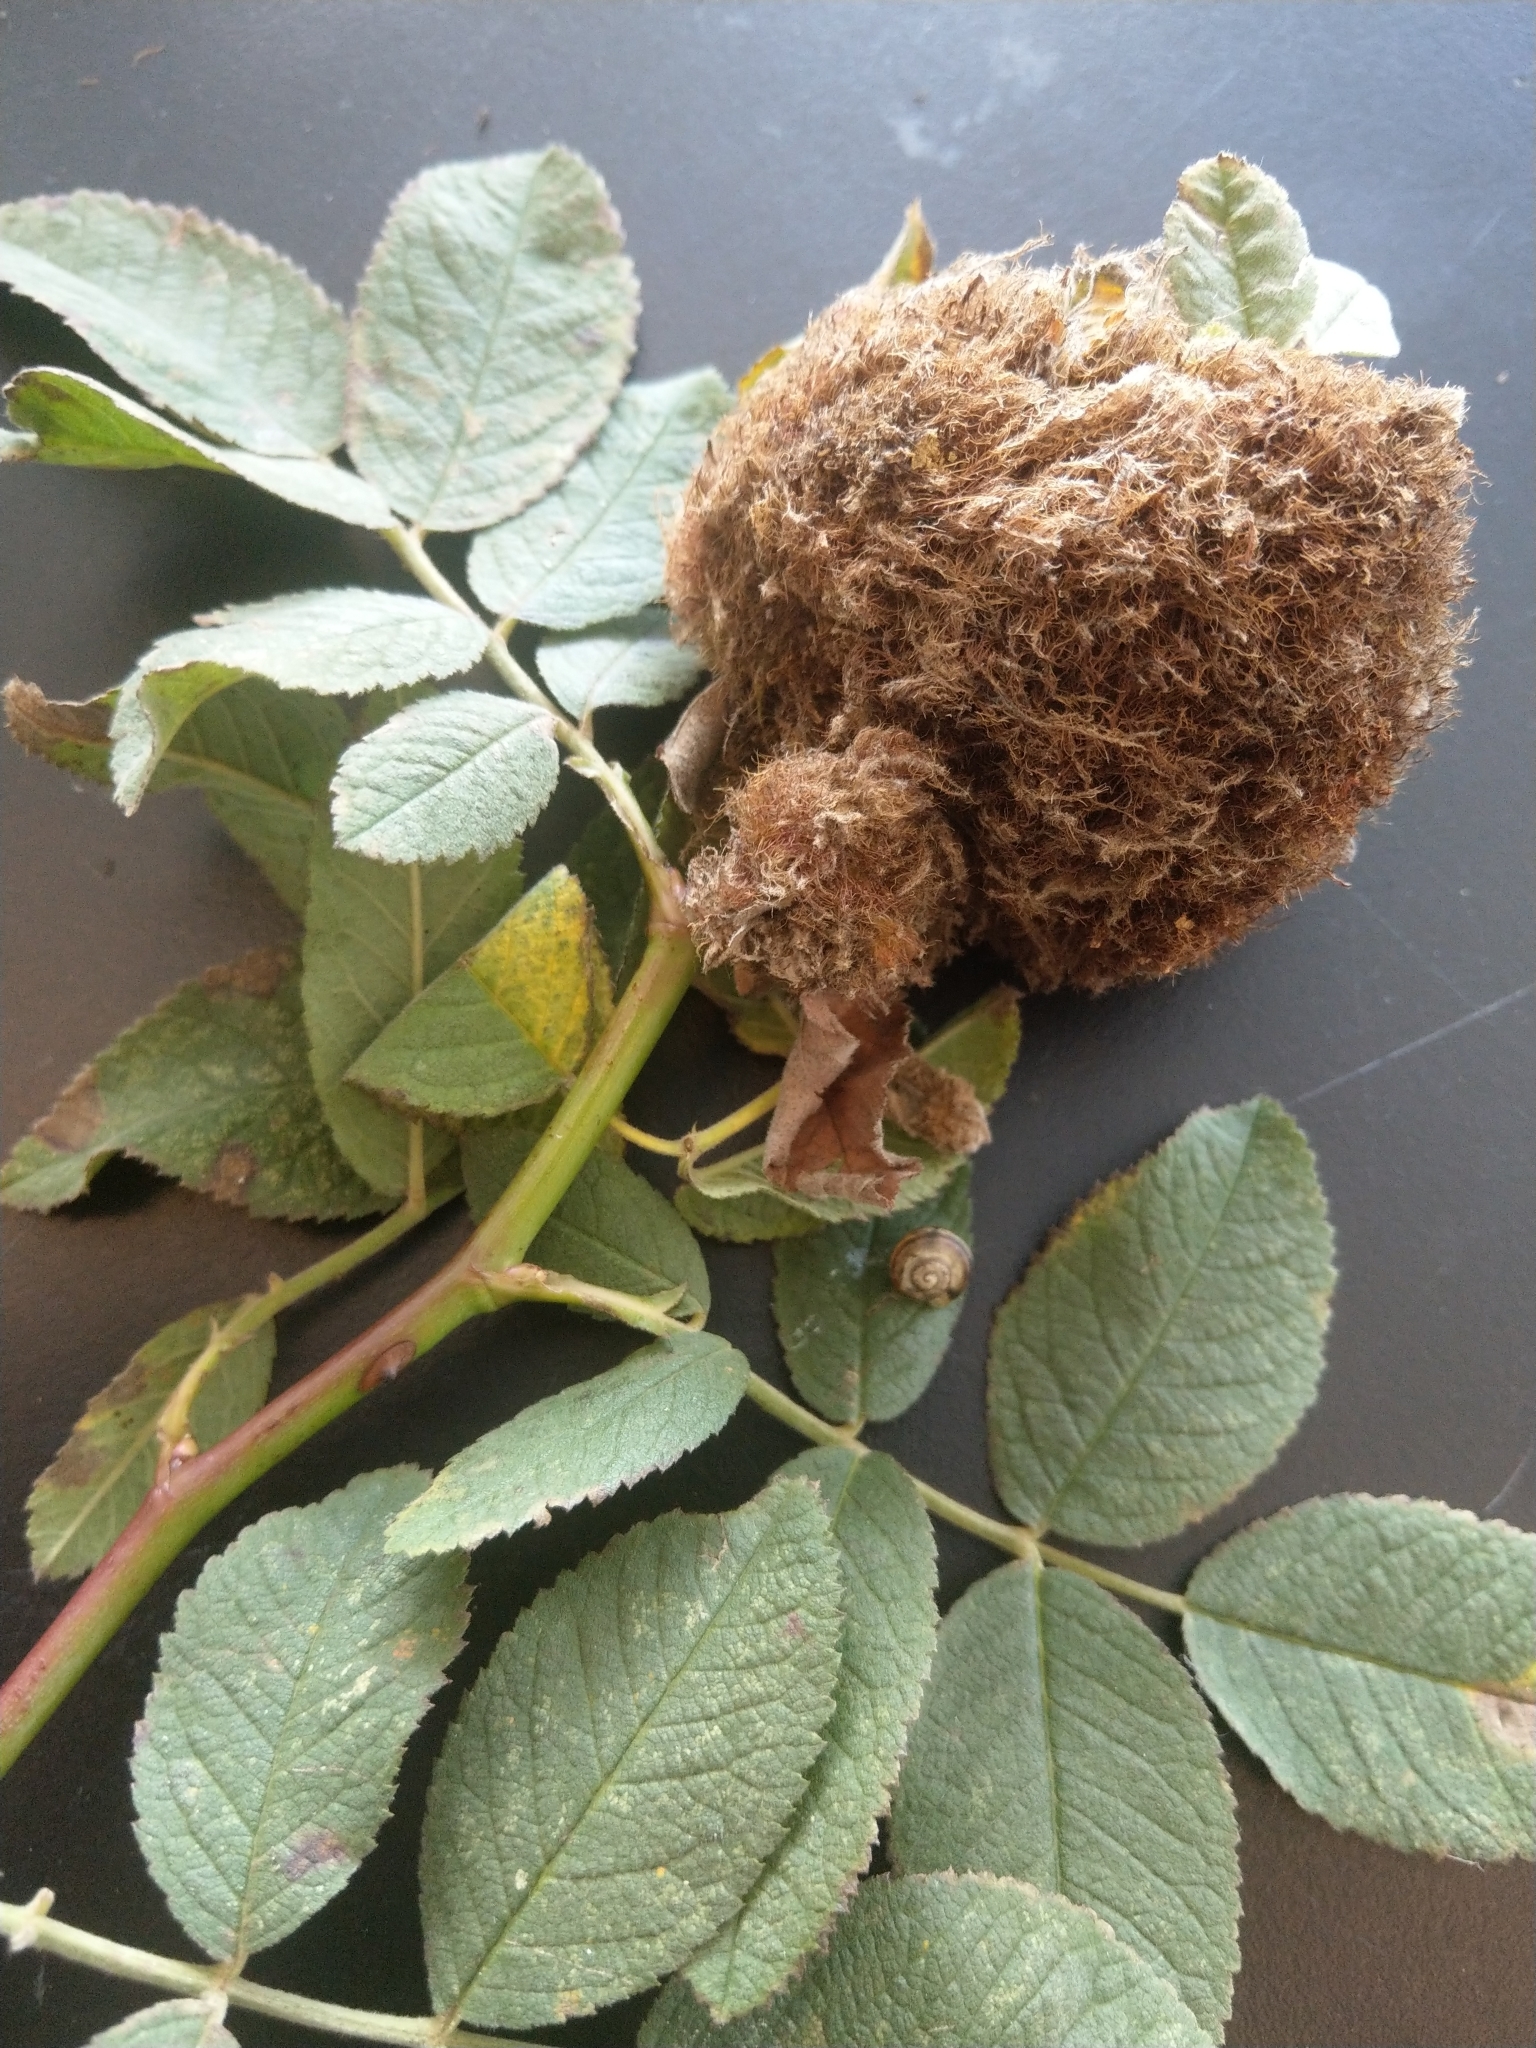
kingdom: Animalia
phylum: Arthropoda
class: Insecta
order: Hymenoptera
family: Cynipidae
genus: Diplolepis
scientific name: Diplolepis rosae
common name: Bedeguar gall
